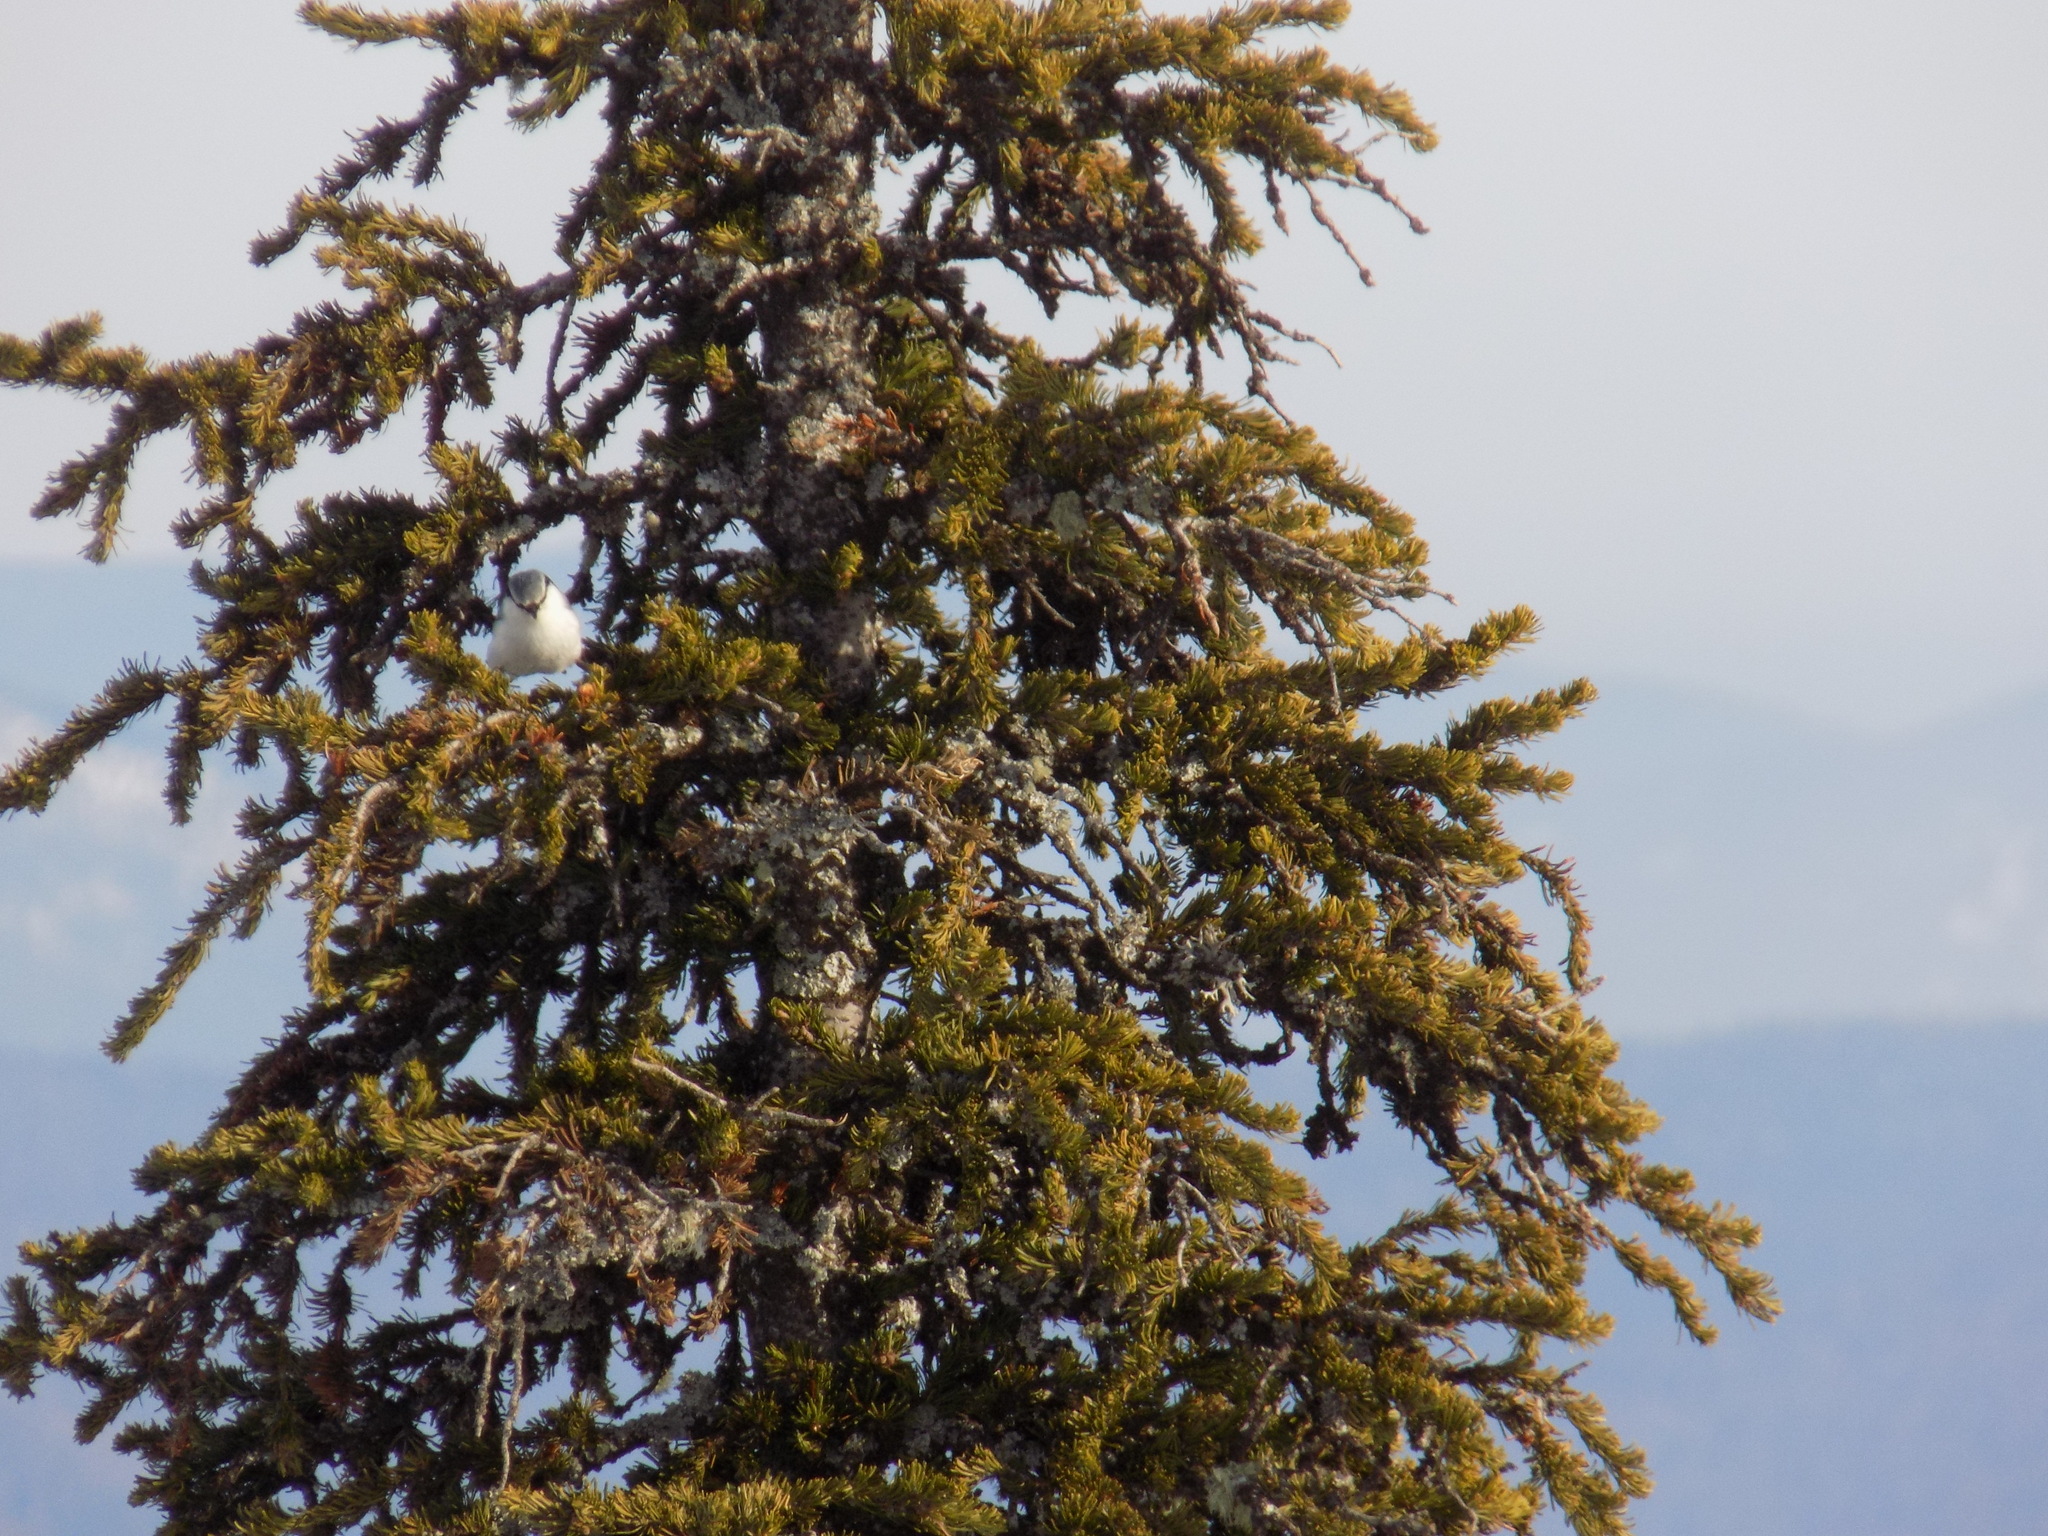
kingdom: Animalia
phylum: Chordata
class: Aves
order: Passeriformes
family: Sittidae
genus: Sitta
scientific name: Sitta europaea
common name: Eurasian nuthatch
